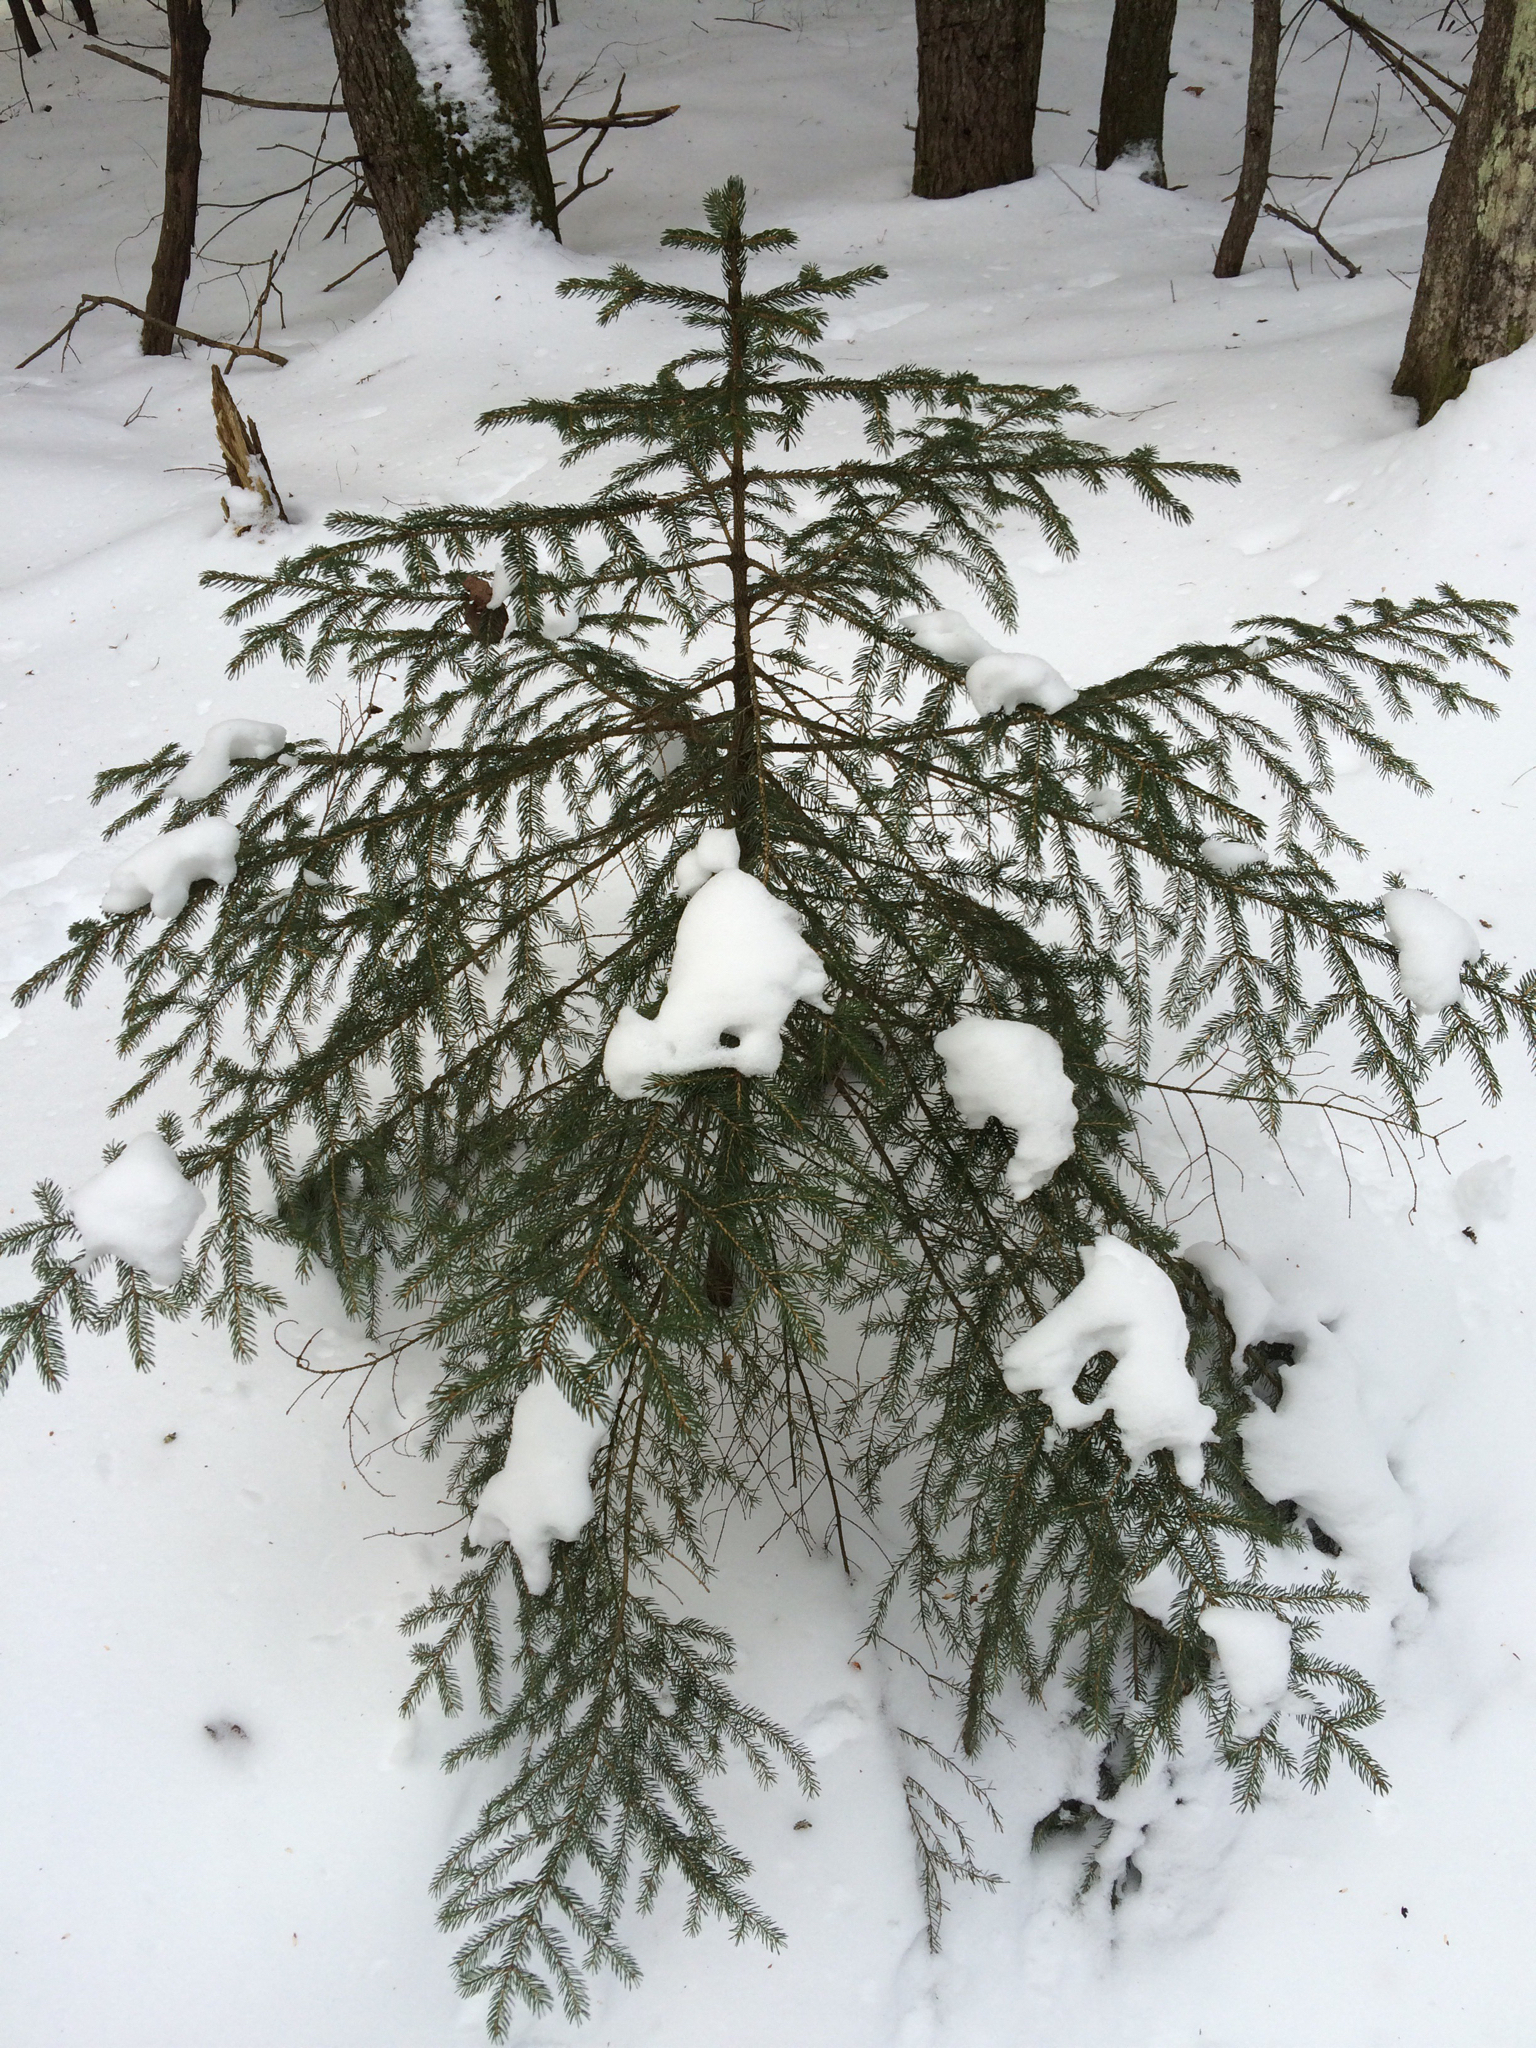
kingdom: Plantae
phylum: Tracheophyta
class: Pinopsida
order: Pinales
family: Pinaceae
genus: Picea
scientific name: Picea rubens
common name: Red spruce
